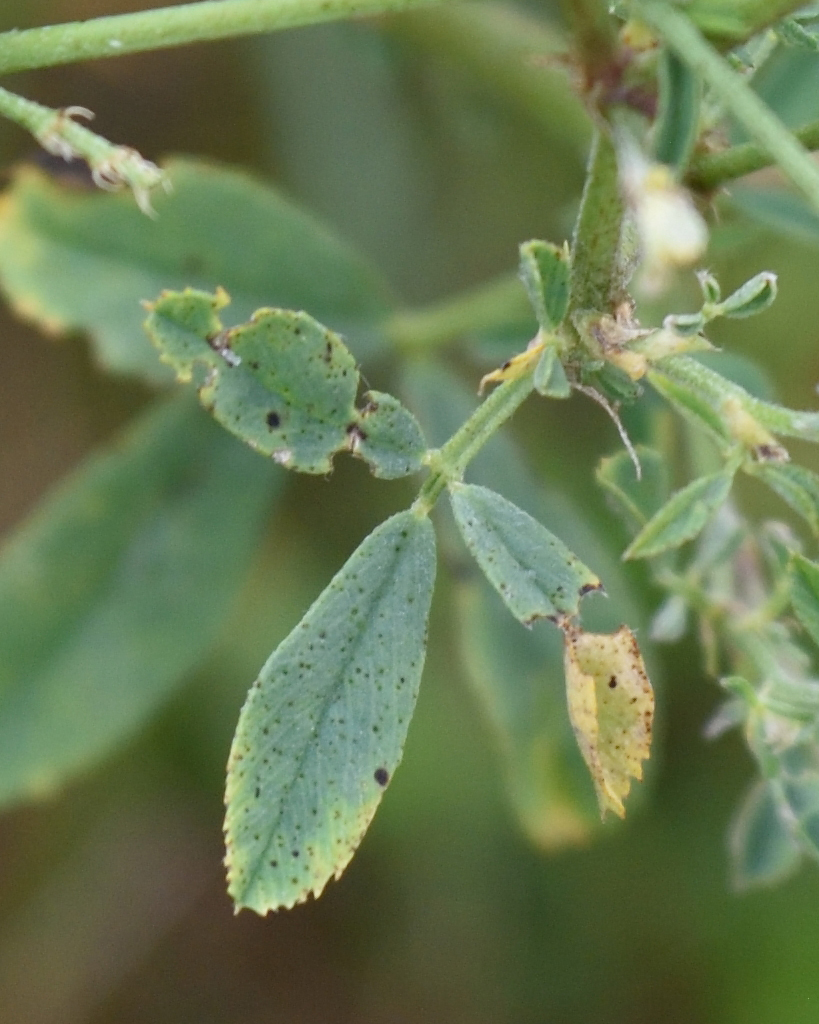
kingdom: Plantae
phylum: Tracheophyta
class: Magnoliopsida
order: Fabales
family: Fabaceae
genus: Medicago
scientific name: Medicago varia
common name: Sand lucerne
